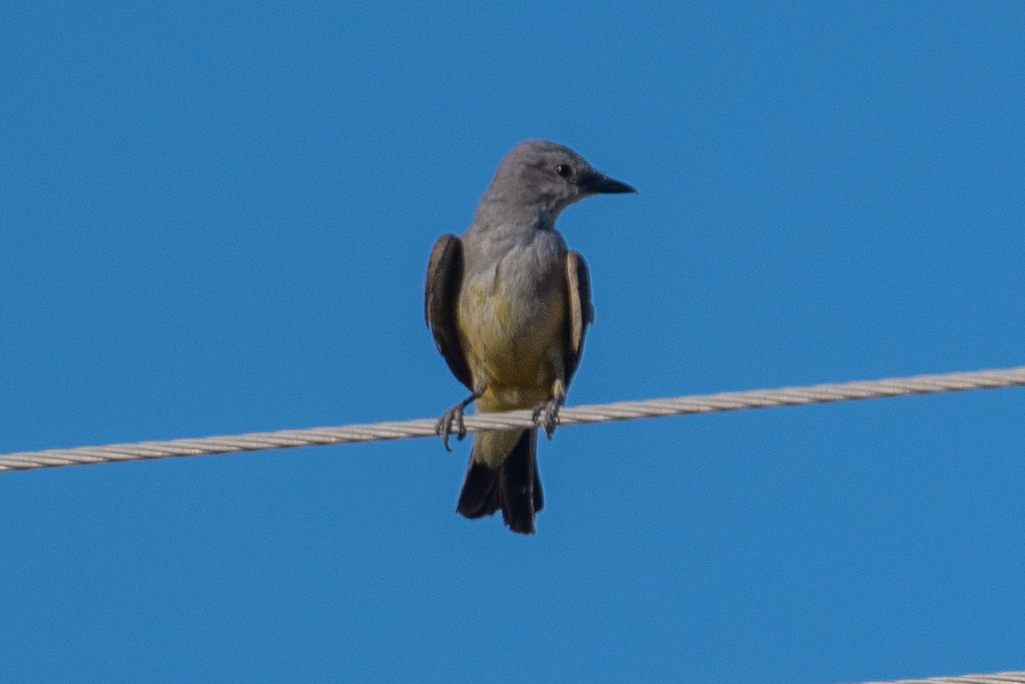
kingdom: Animalia
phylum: Chordata
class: Aves
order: Passeriformes
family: Tyrannidae
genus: Tyrannus
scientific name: Tyrannus verticalis
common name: Western kingbird
